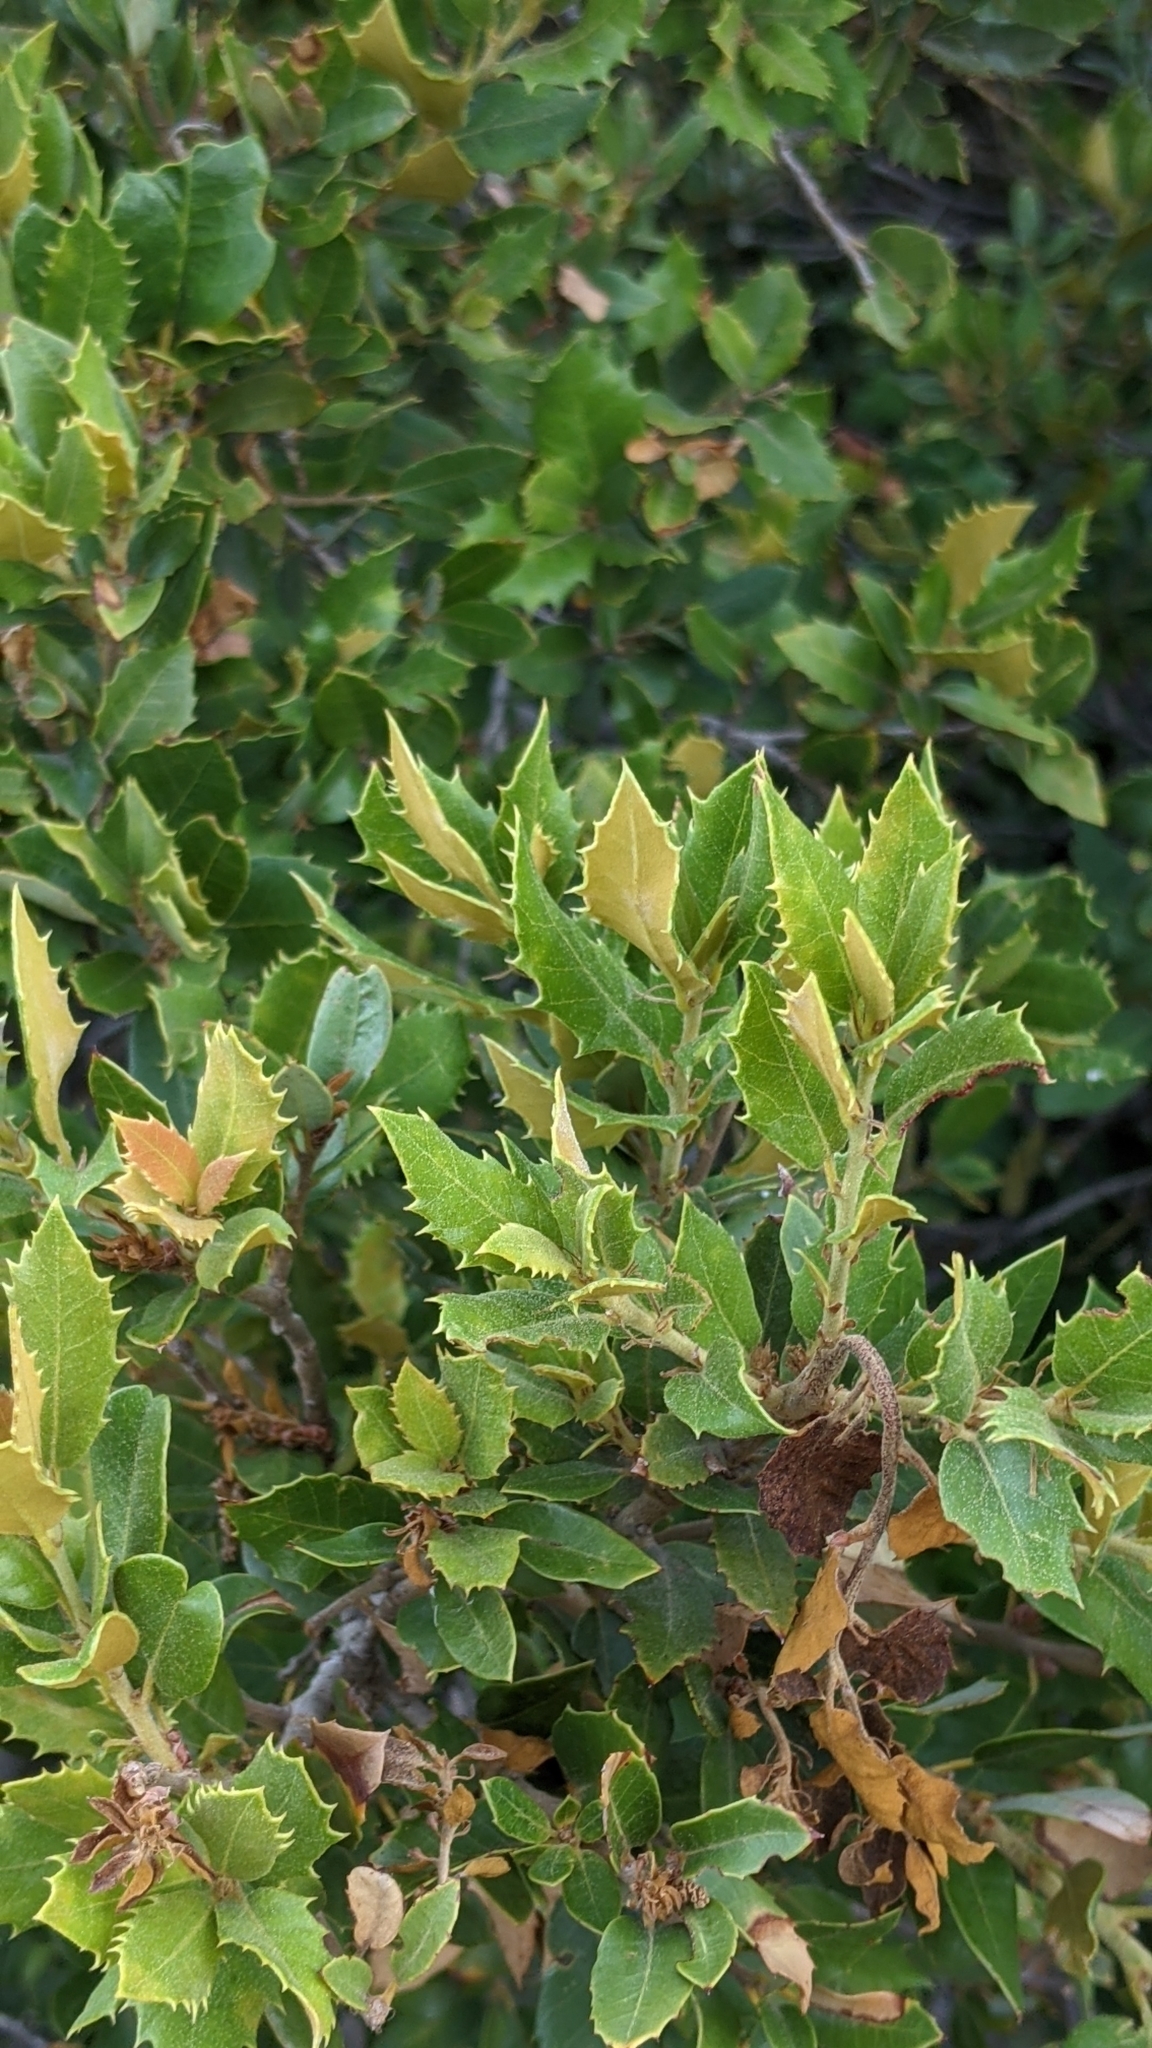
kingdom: Plantae
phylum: Tracheophyta
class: Magnoliopsida
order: Fagales
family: Fagaceae
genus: Quercus
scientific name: Quercus chrysolepis
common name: Canyon live oak
